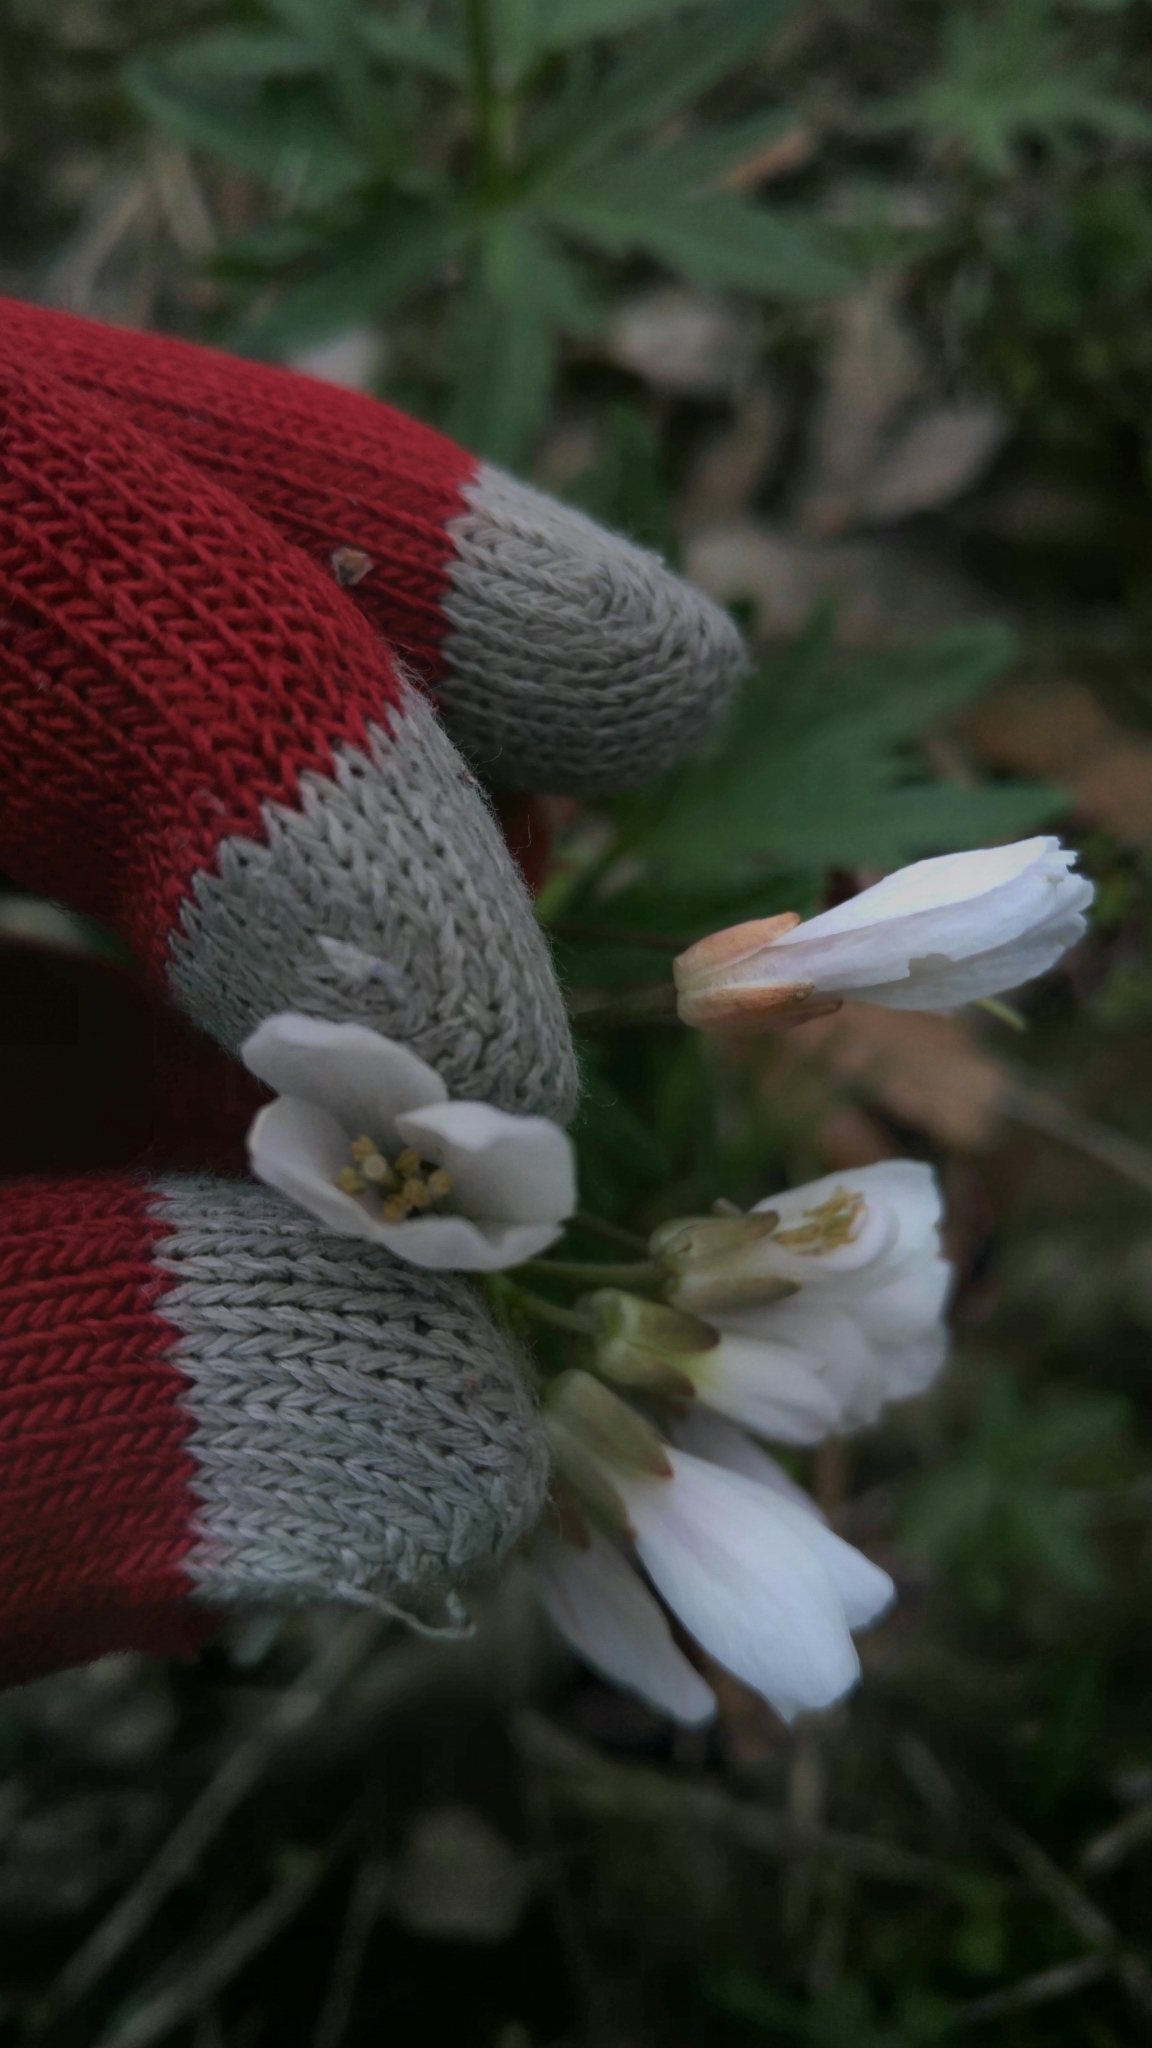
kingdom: Plantae
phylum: Tracheophyta
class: Magnoliopsida
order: Brassicales
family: Brassicaceae
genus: Cardamine
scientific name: Cardamine concatenata
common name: Cut-leaf toothcup
